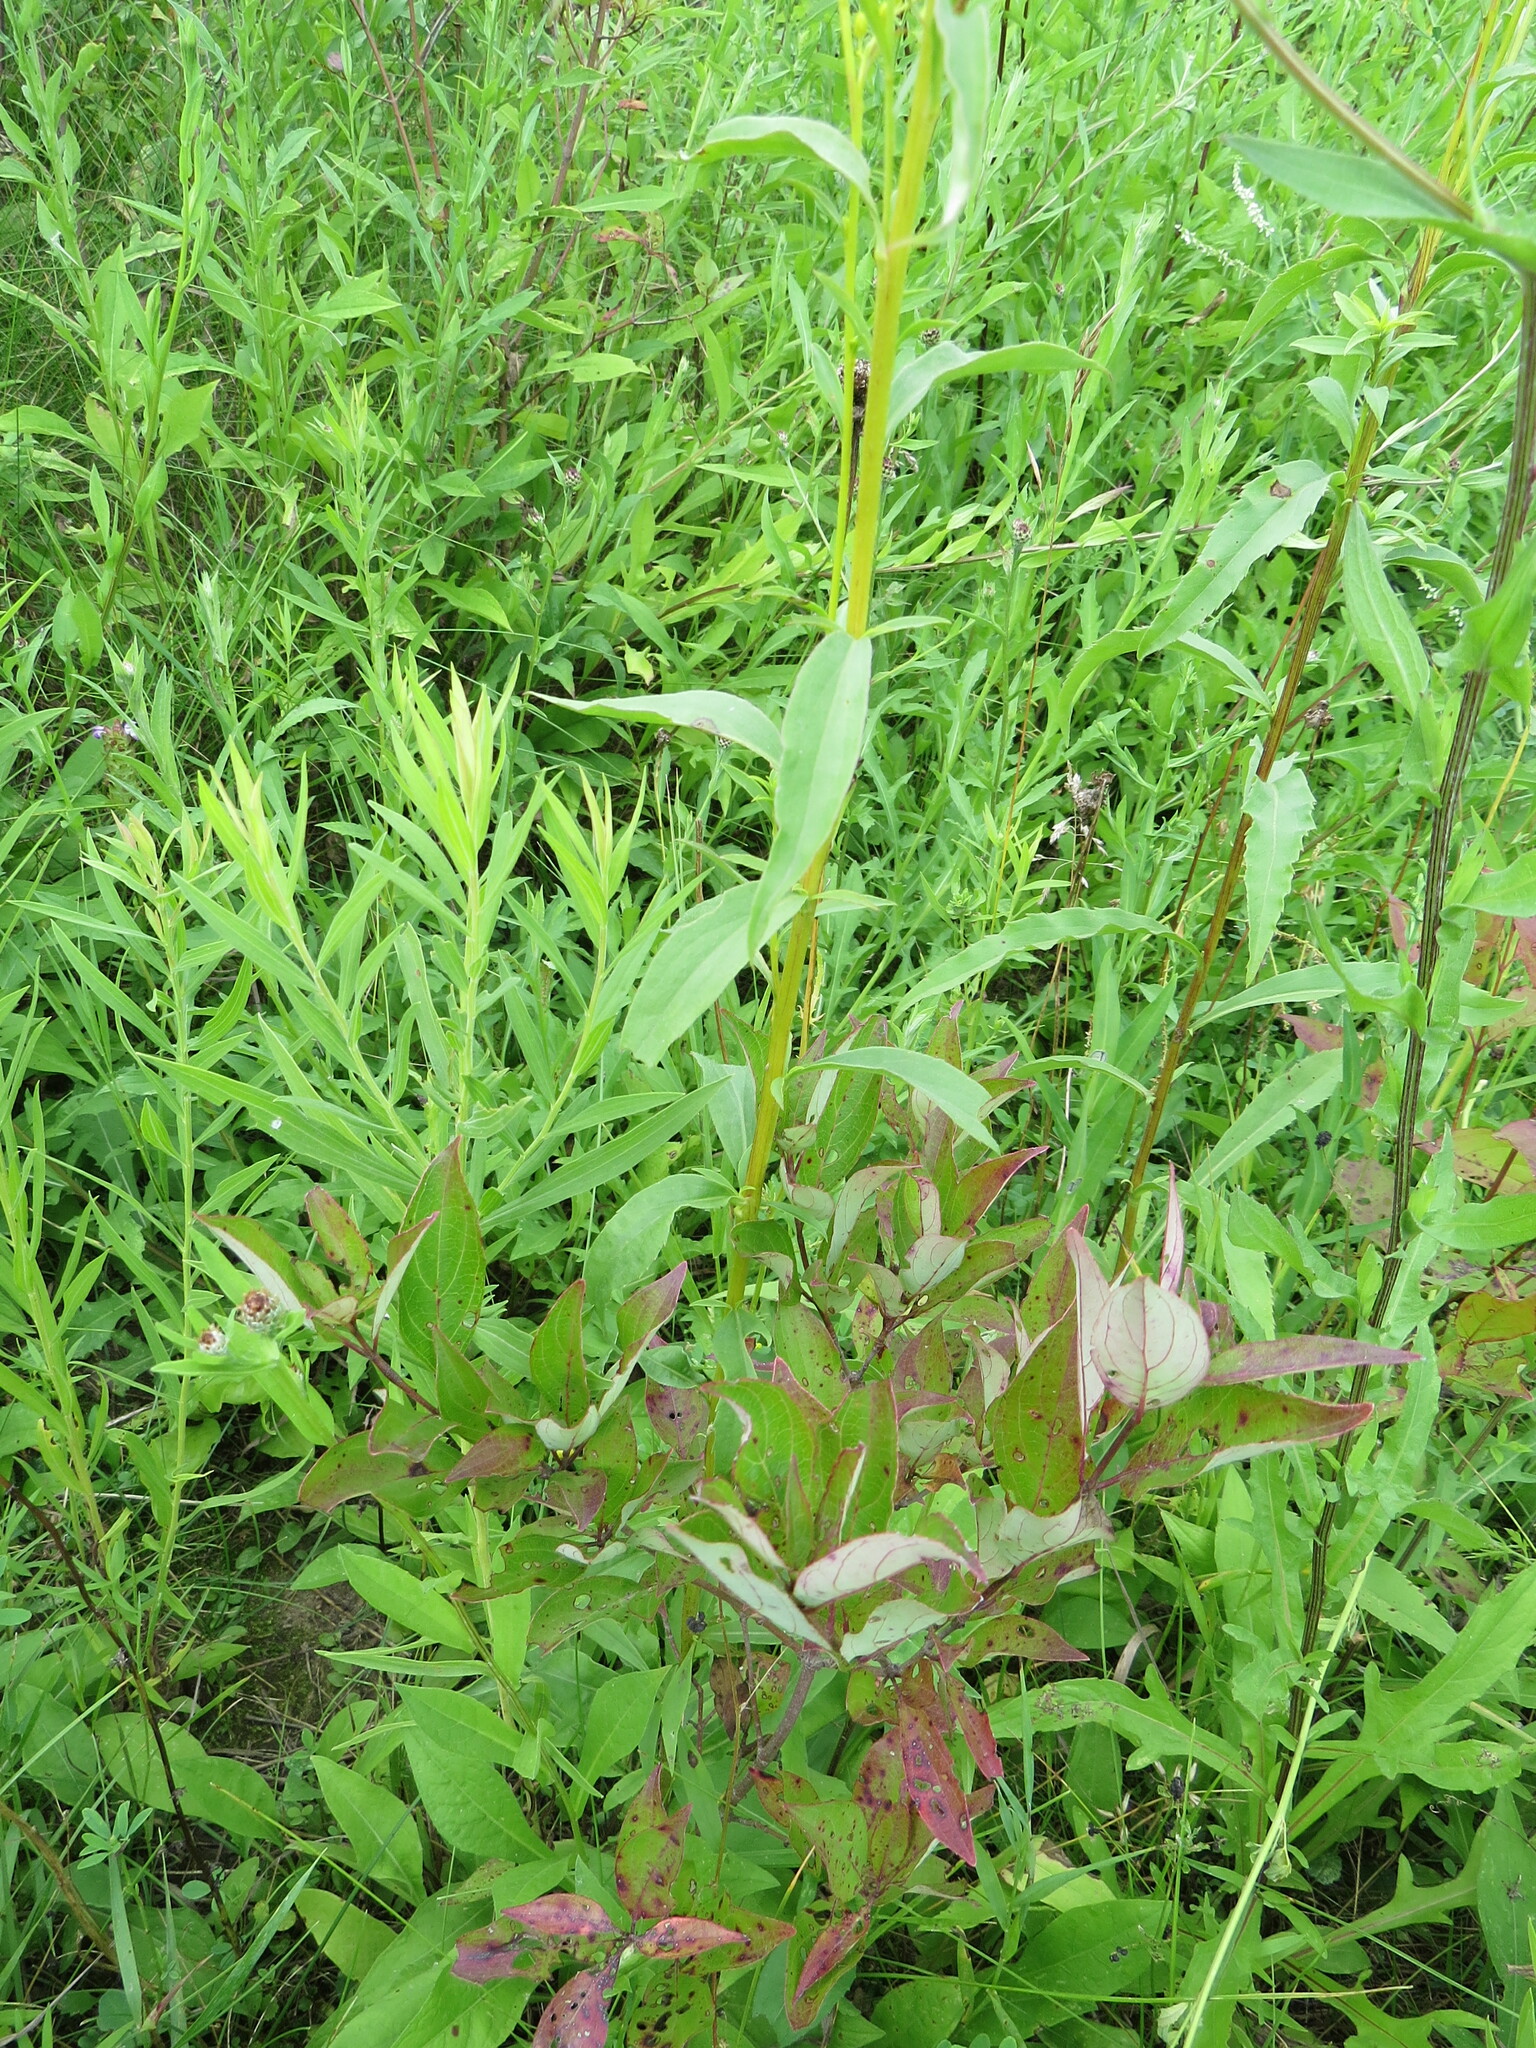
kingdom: Plantae
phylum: Tracheophyta
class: Magnoliopsida
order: Asterales
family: Asteraceae
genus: Solidago
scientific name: Solidago juncea
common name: Early goldenrod
